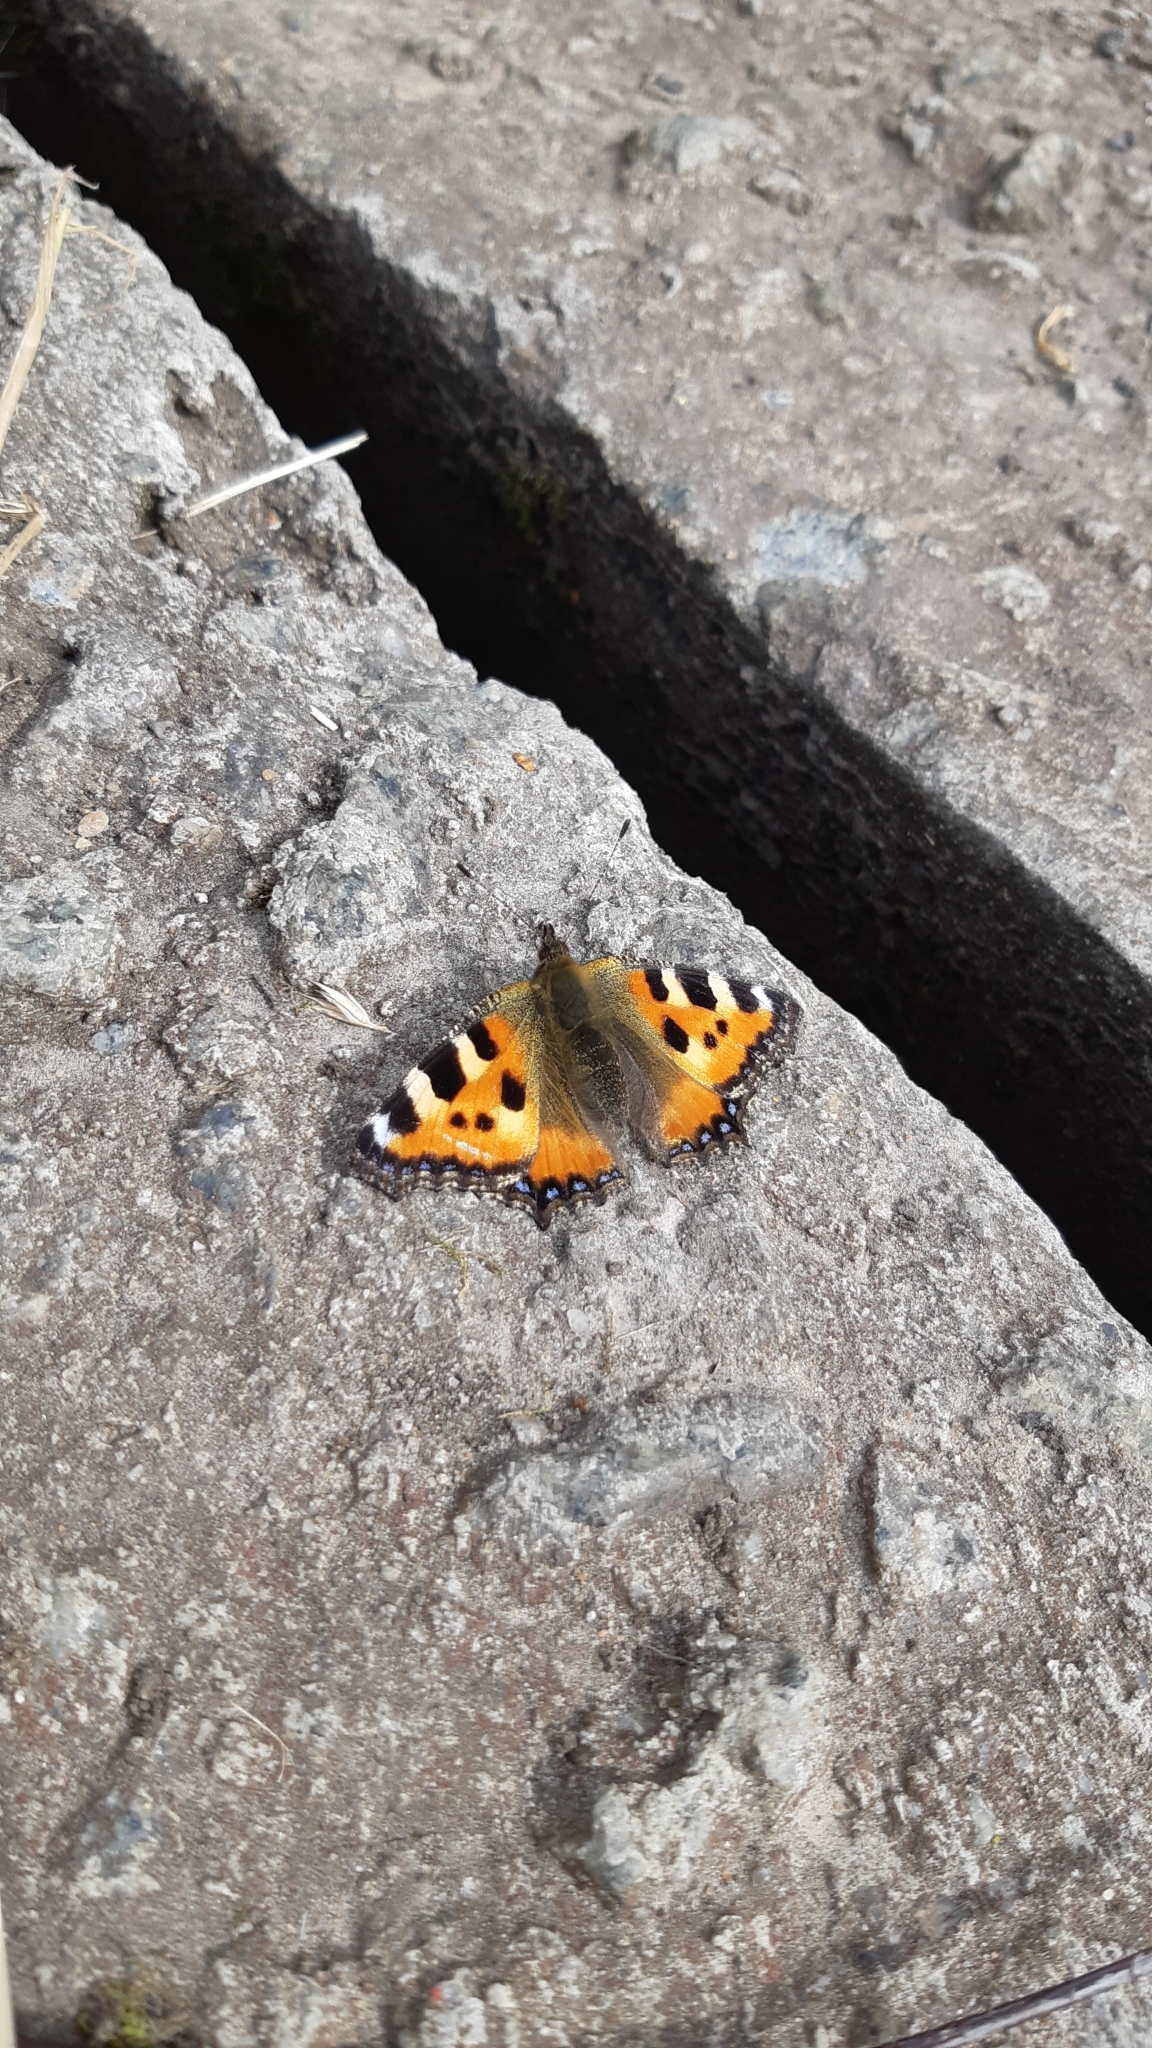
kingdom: Animalia
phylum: Arthropoda
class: Insecta
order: Lepidoptera
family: Nymphalidae
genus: Aglais
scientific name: Aglais urticae
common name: Small tortoiseshell
